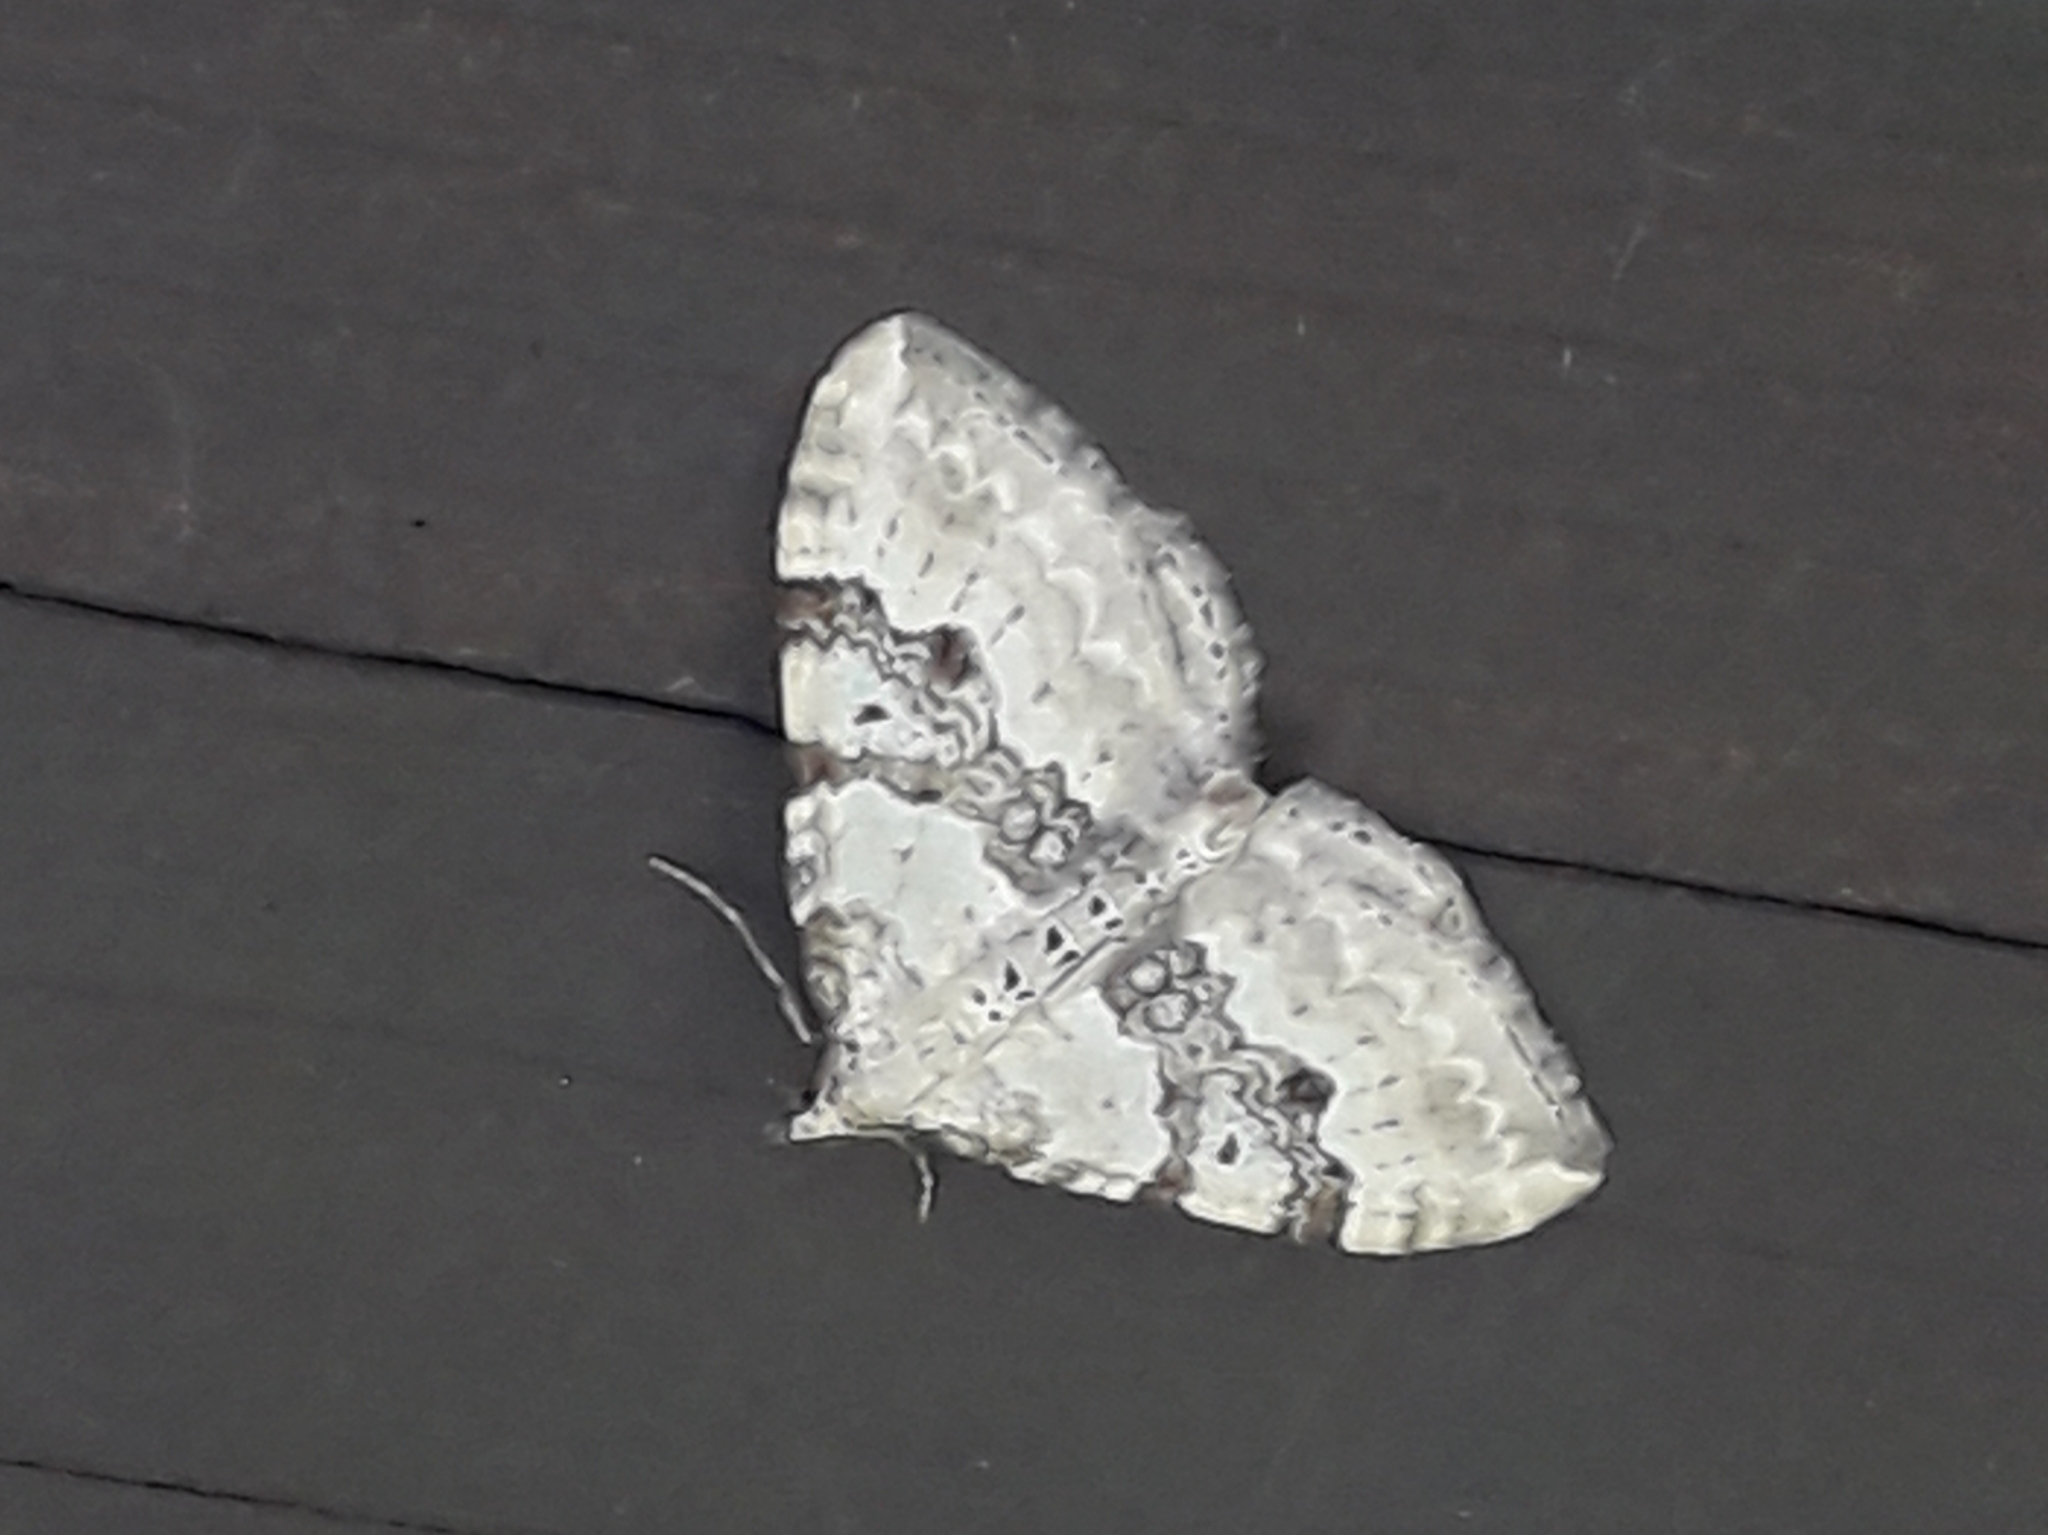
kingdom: Animalia
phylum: Arthropoda
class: Insecta
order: Lepidoptera
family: Geometridae
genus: Xanthorhoe
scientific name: Xanthorhoe montanata
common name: Silver-ground carpet
